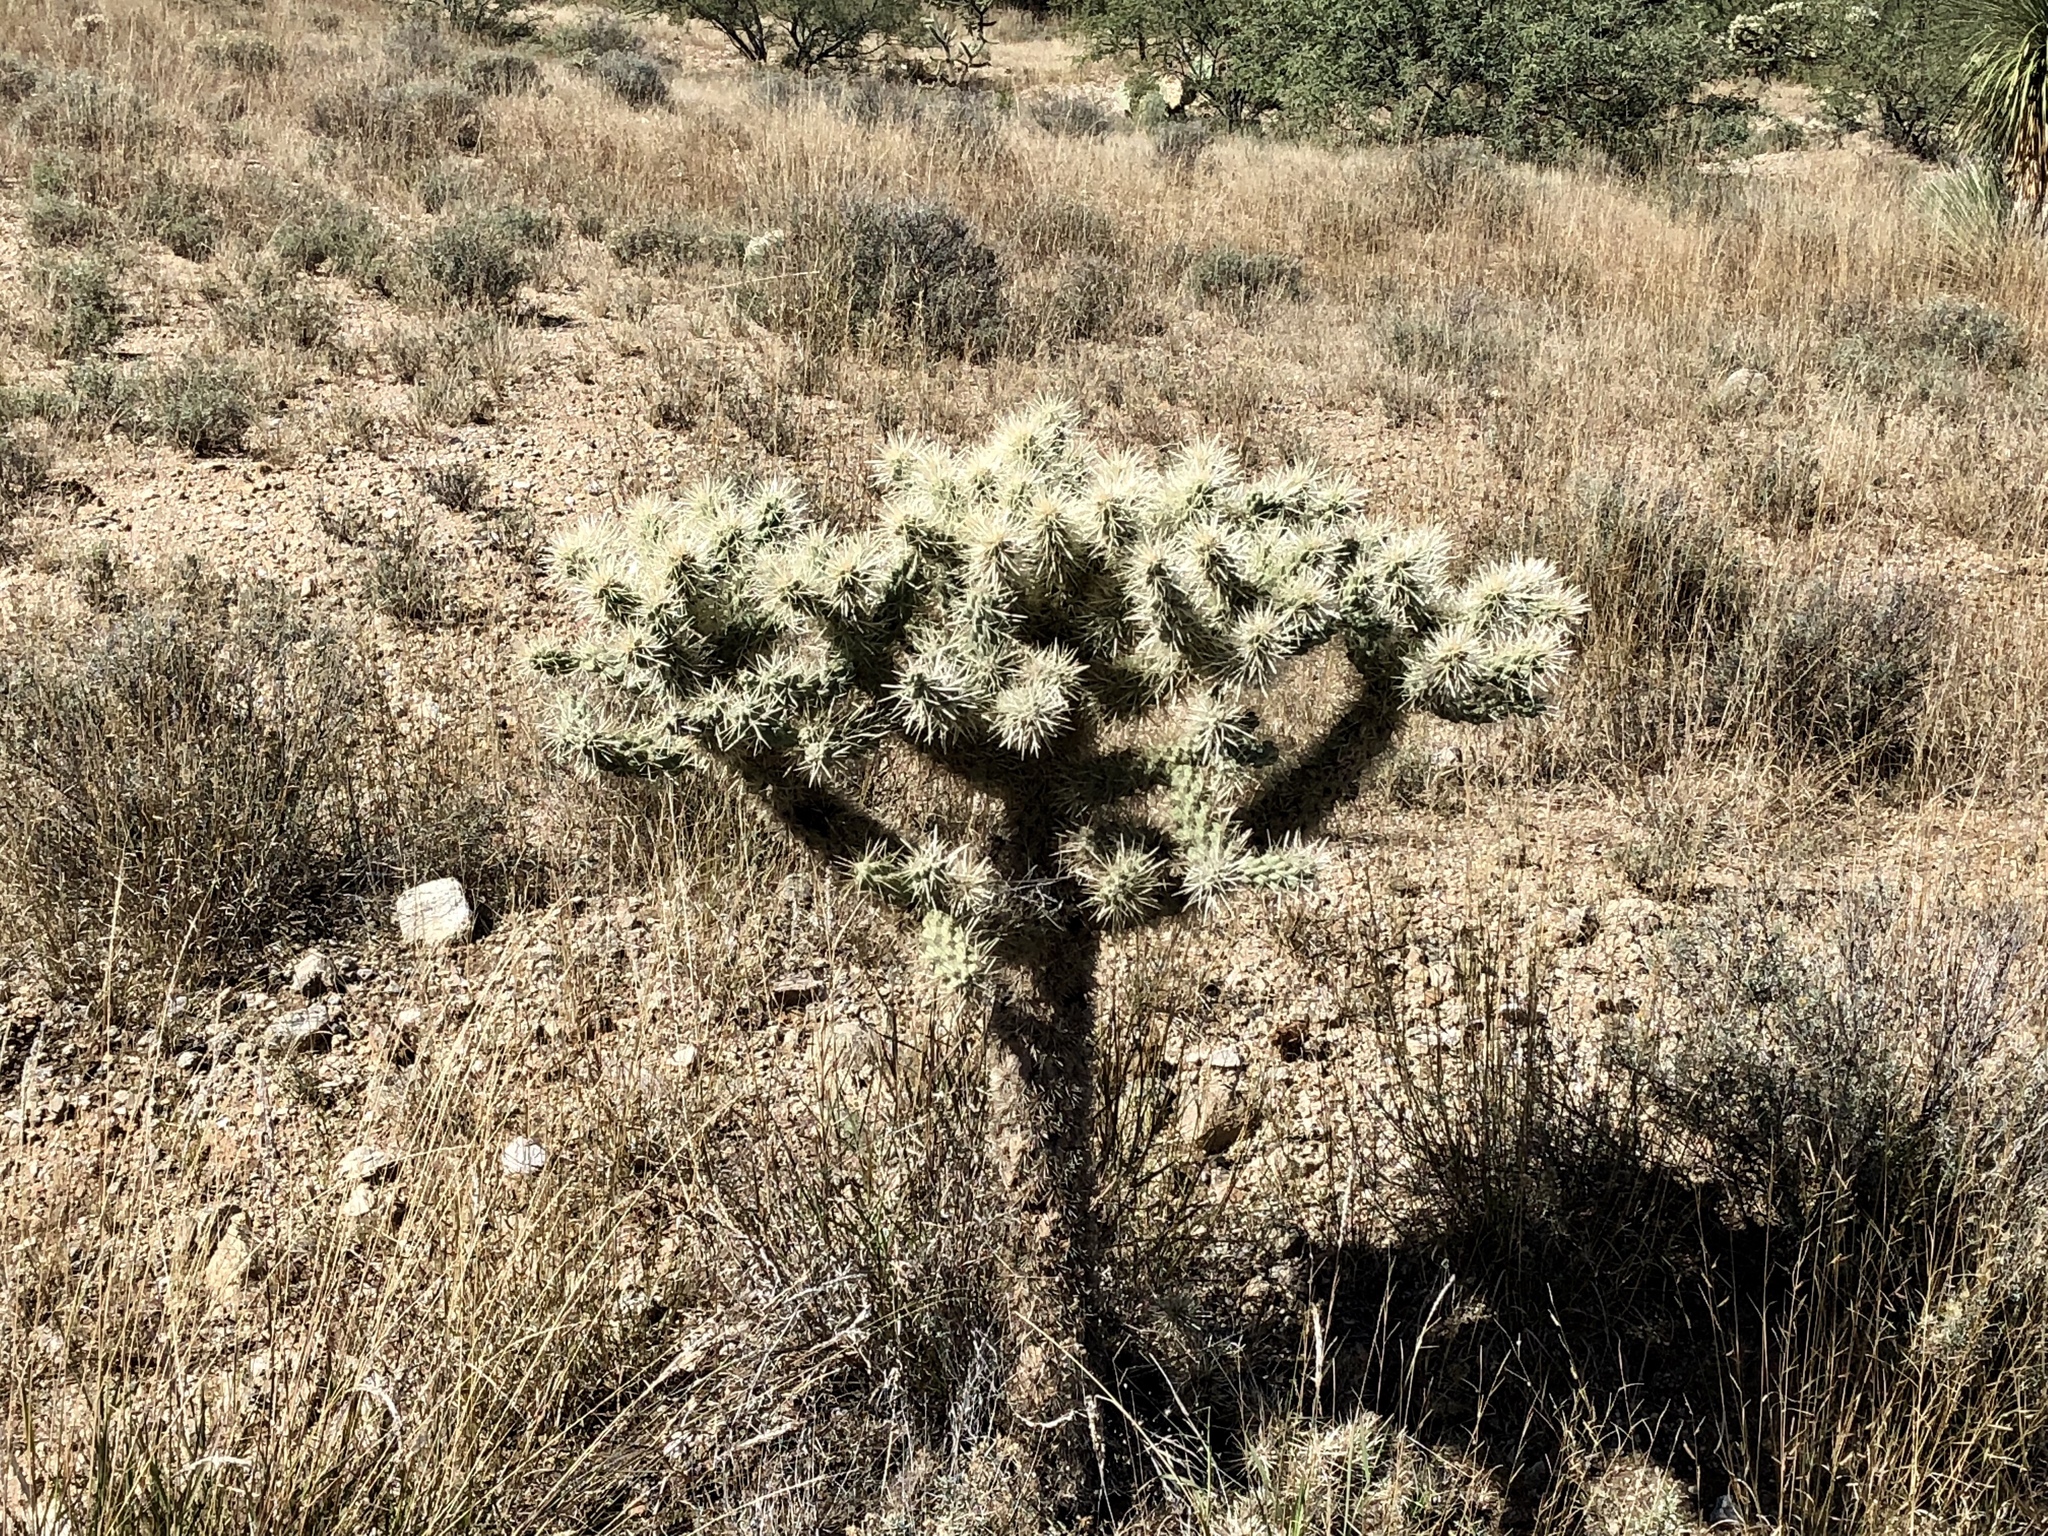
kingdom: Plantae
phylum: Tracheophyta
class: Magnoliopsida
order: Caryophyllales
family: Cactaceae
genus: Cylindropuntia
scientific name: Cylindropuntia fulgida
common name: Jumping cholla
